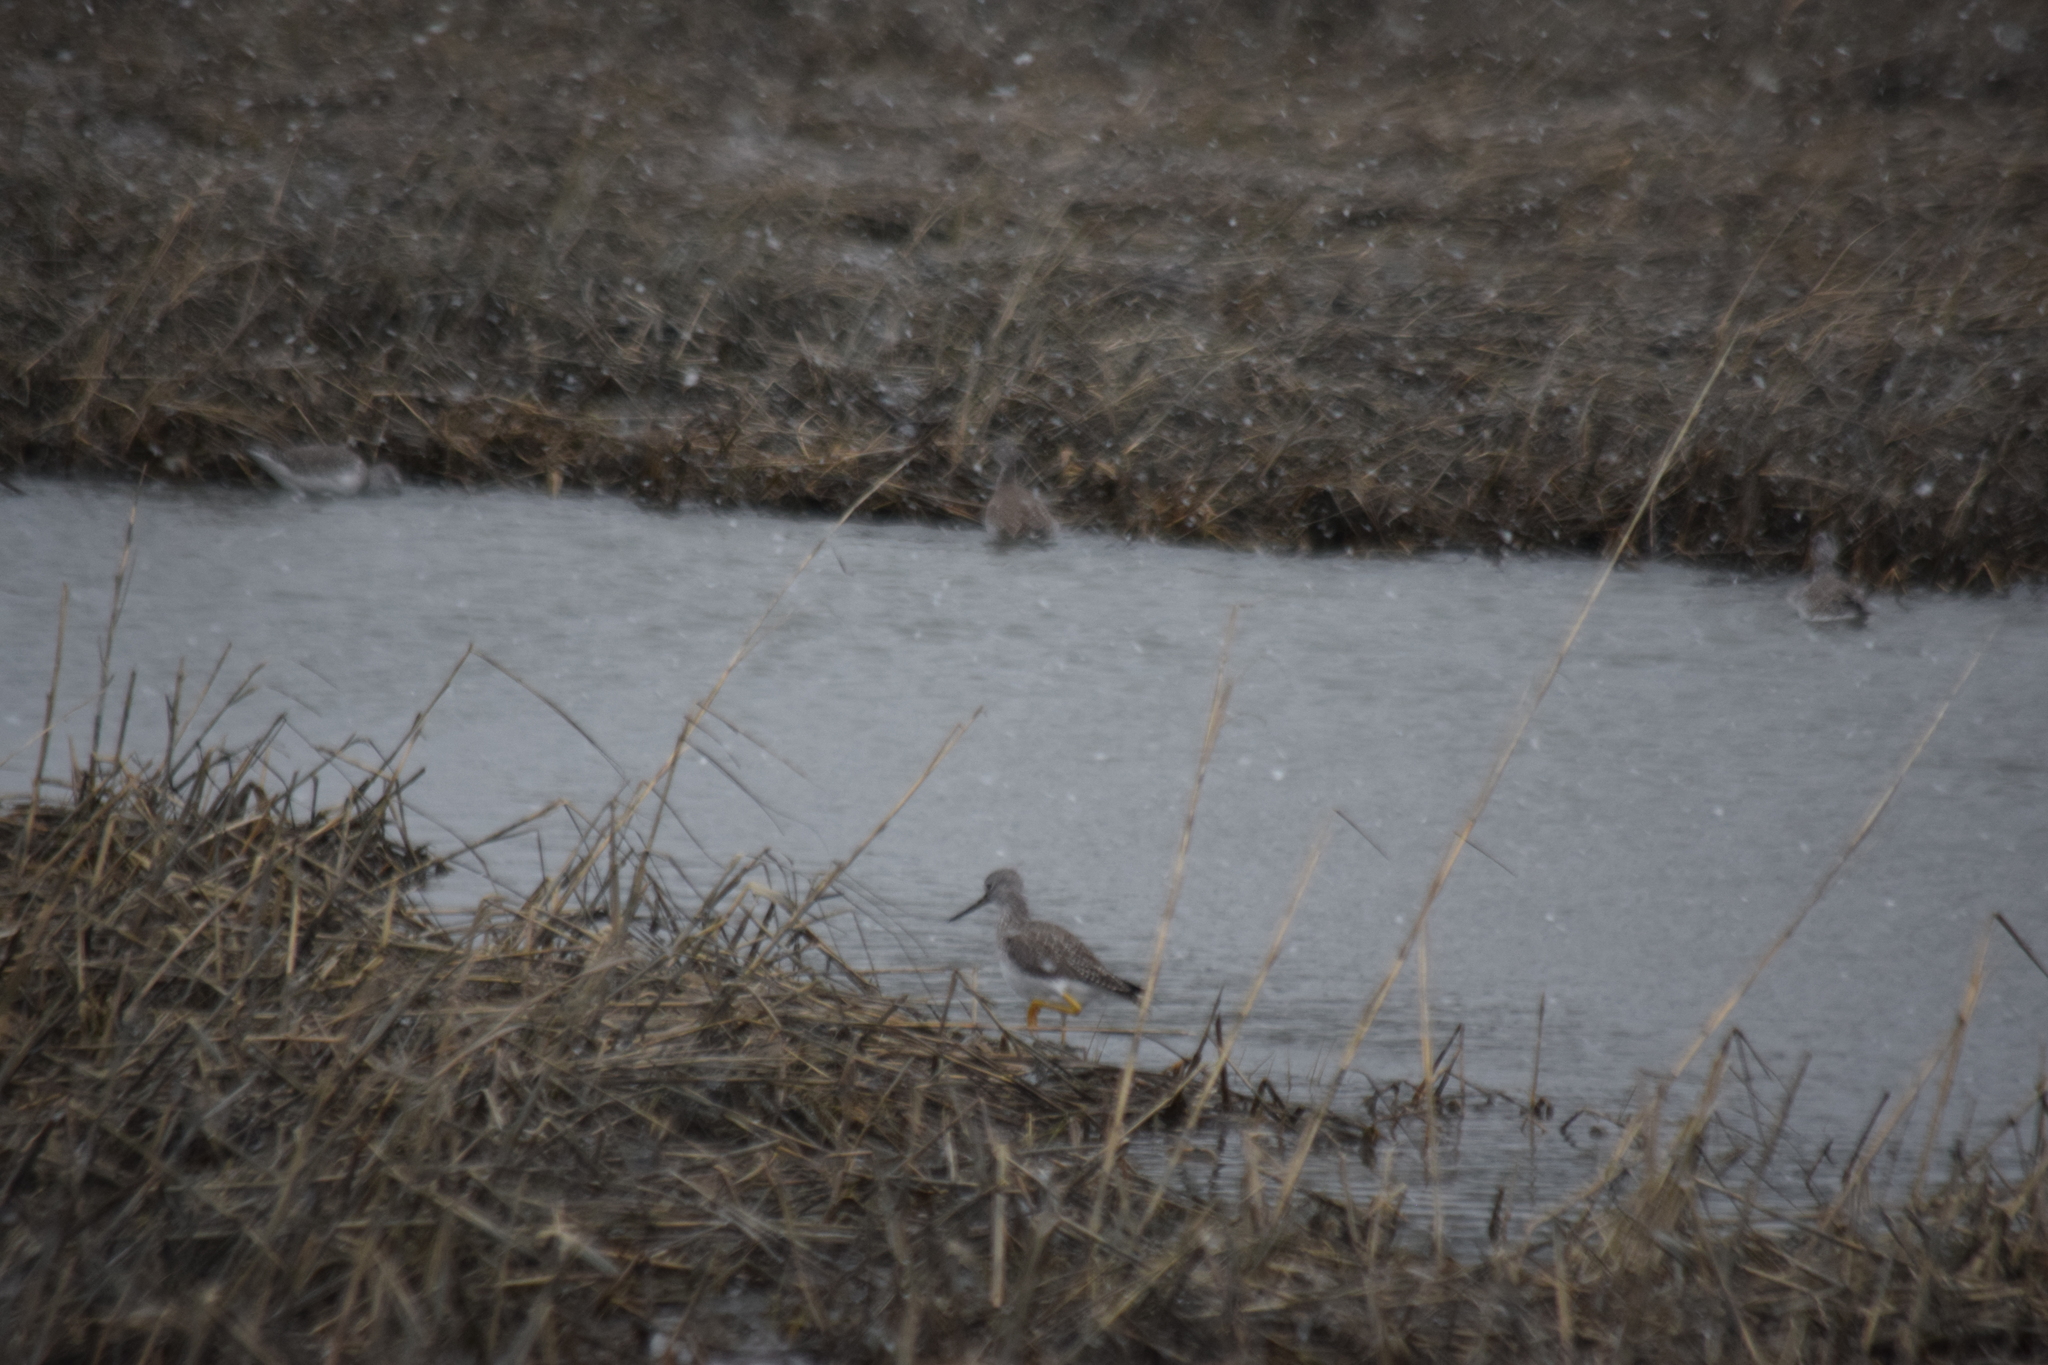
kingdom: Animalia
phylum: Chordata
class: Aves
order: Charadriiformes
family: Scolopacidae
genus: Tringa
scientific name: Tringa melanoleuca
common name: Greater yellowlegs
